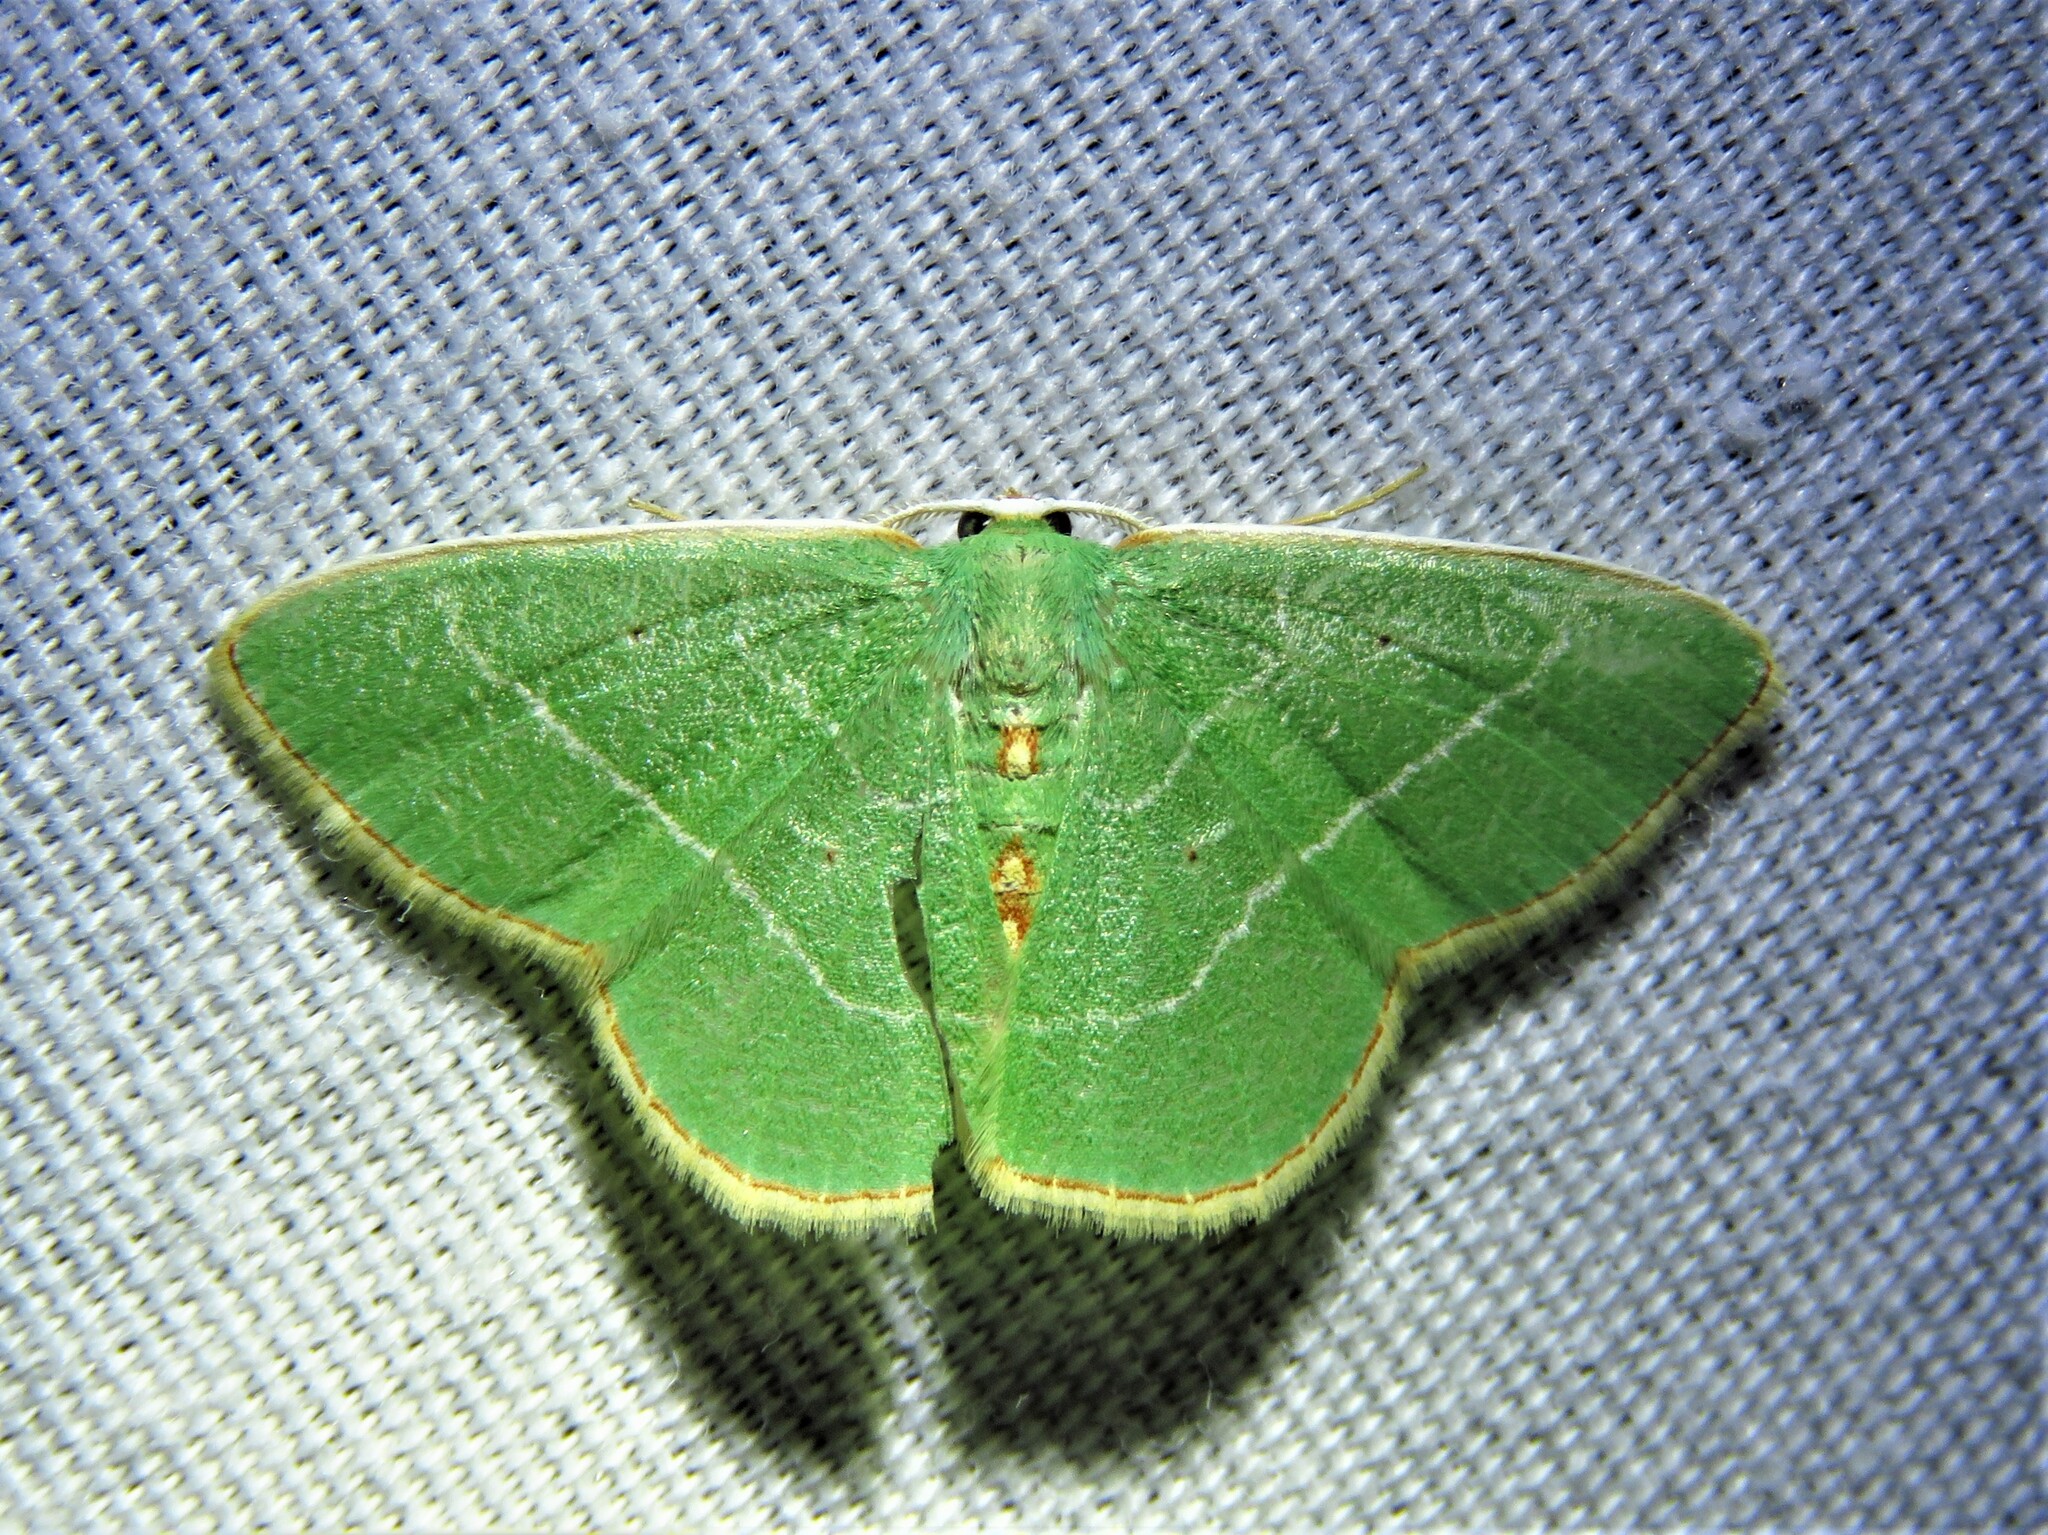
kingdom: Animalia
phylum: Arthropoda
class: Insecta
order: Lepidoptera
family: Geometridae
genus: Nemoria
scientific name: Nemoria bistriaria
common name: Red-fringed emerald
